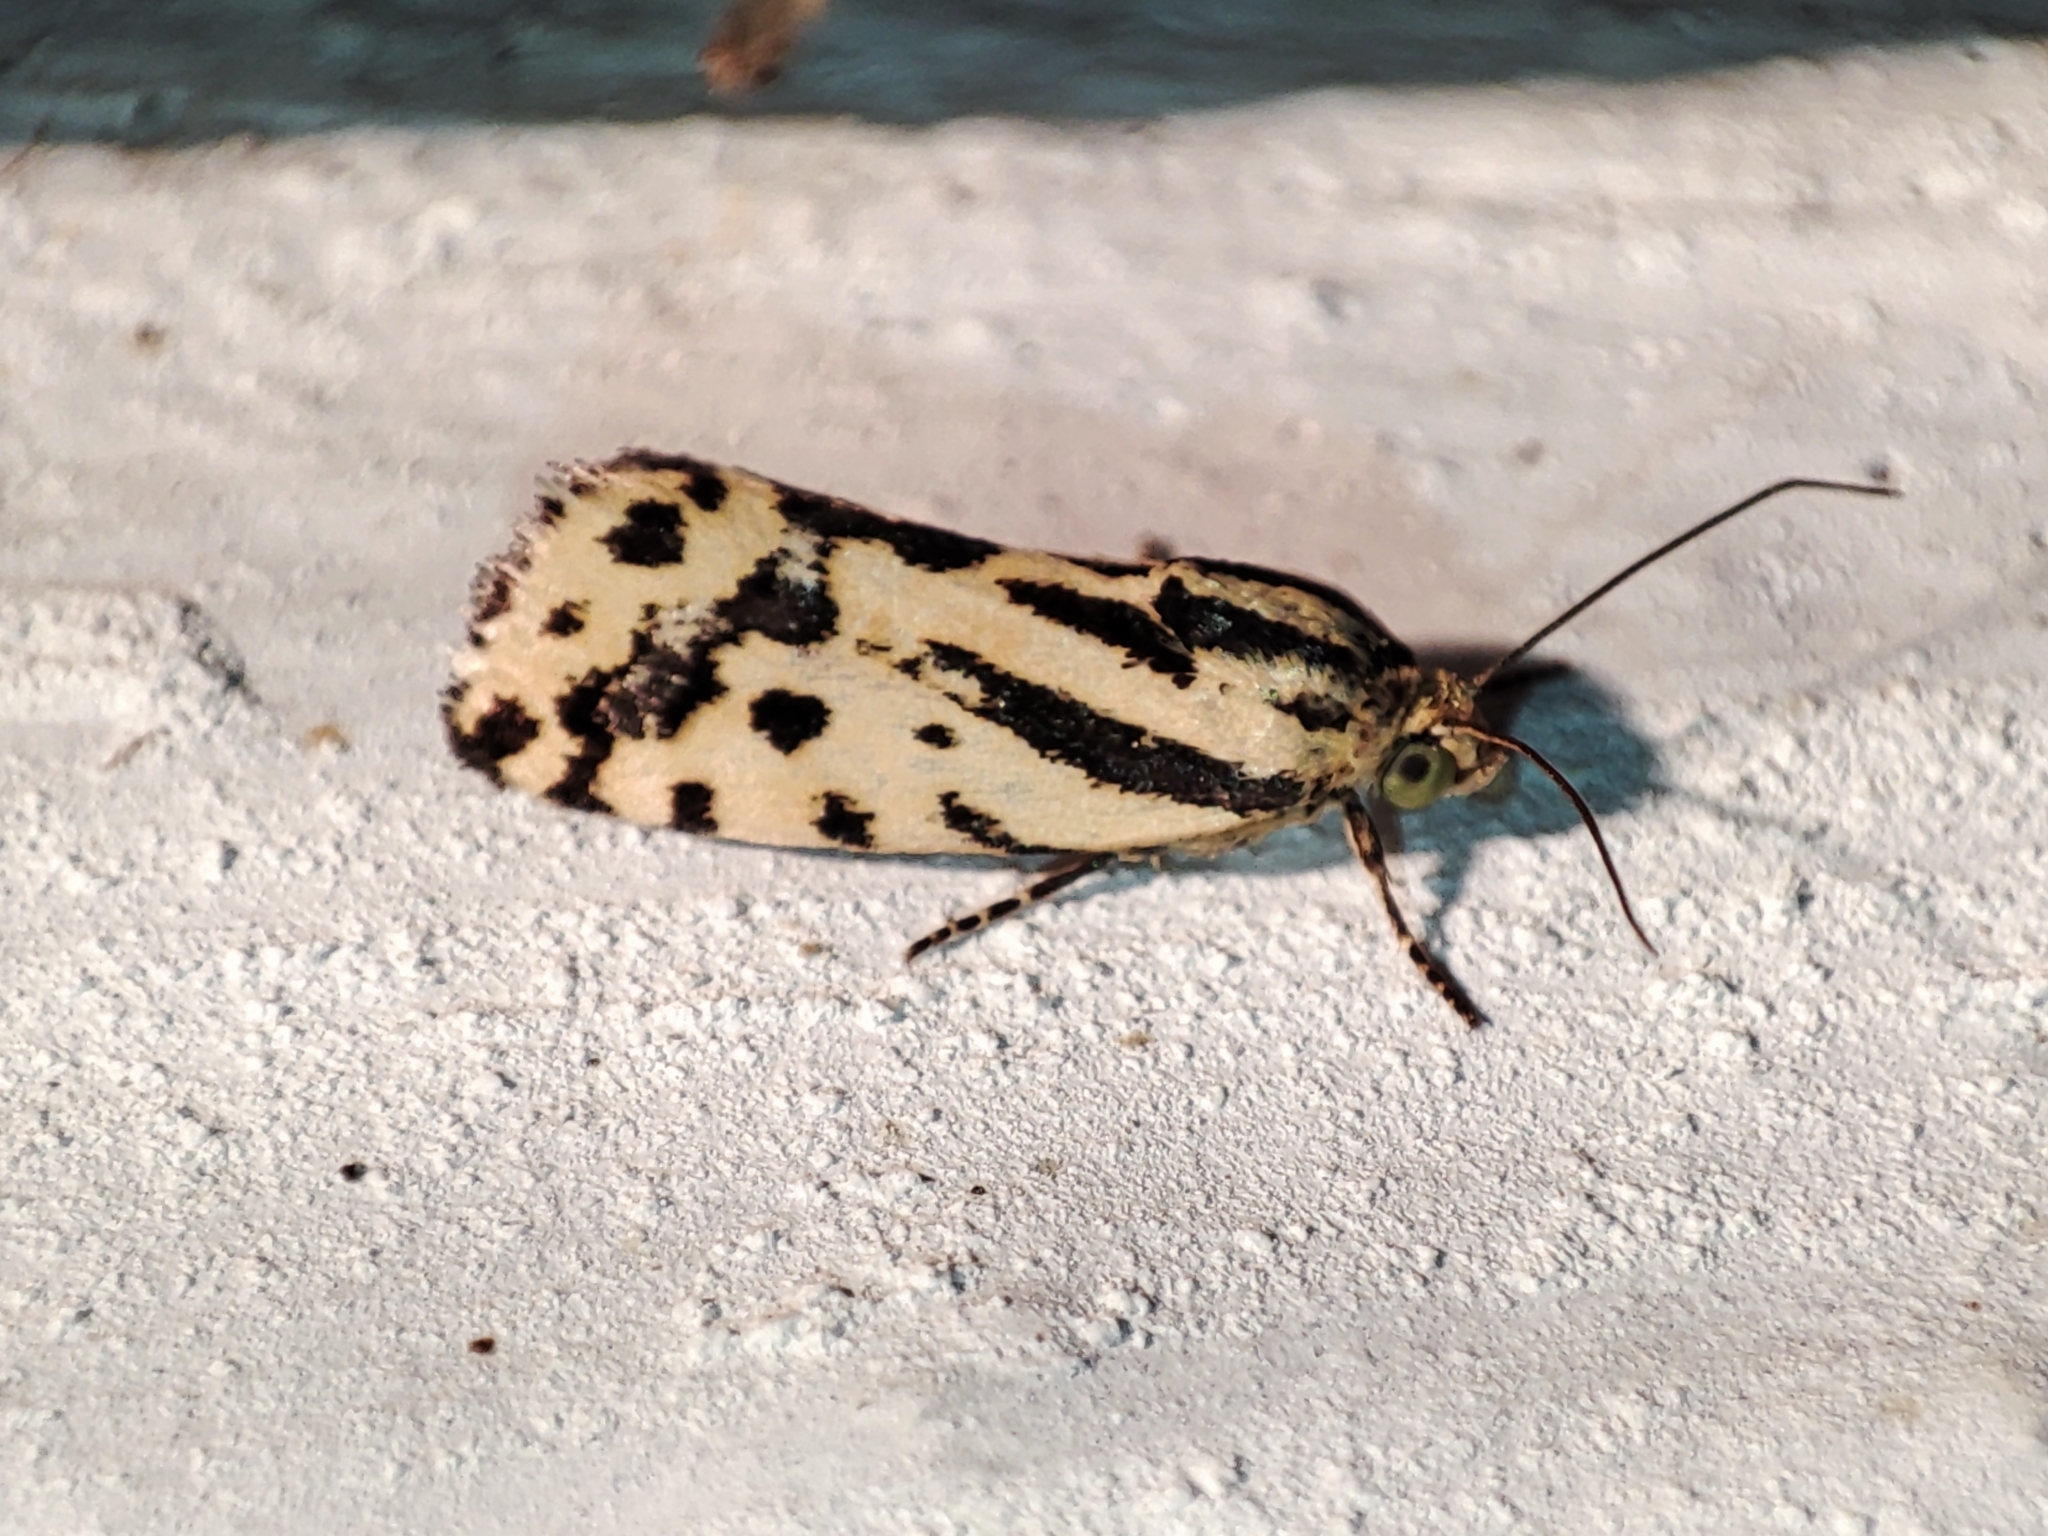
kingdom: Animalia
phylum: Arthropoda
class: Insecta
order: Lepidoptera
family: Noctuidae
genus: Acontia
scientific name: Acontia trabealis
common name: Spotted sulphur
